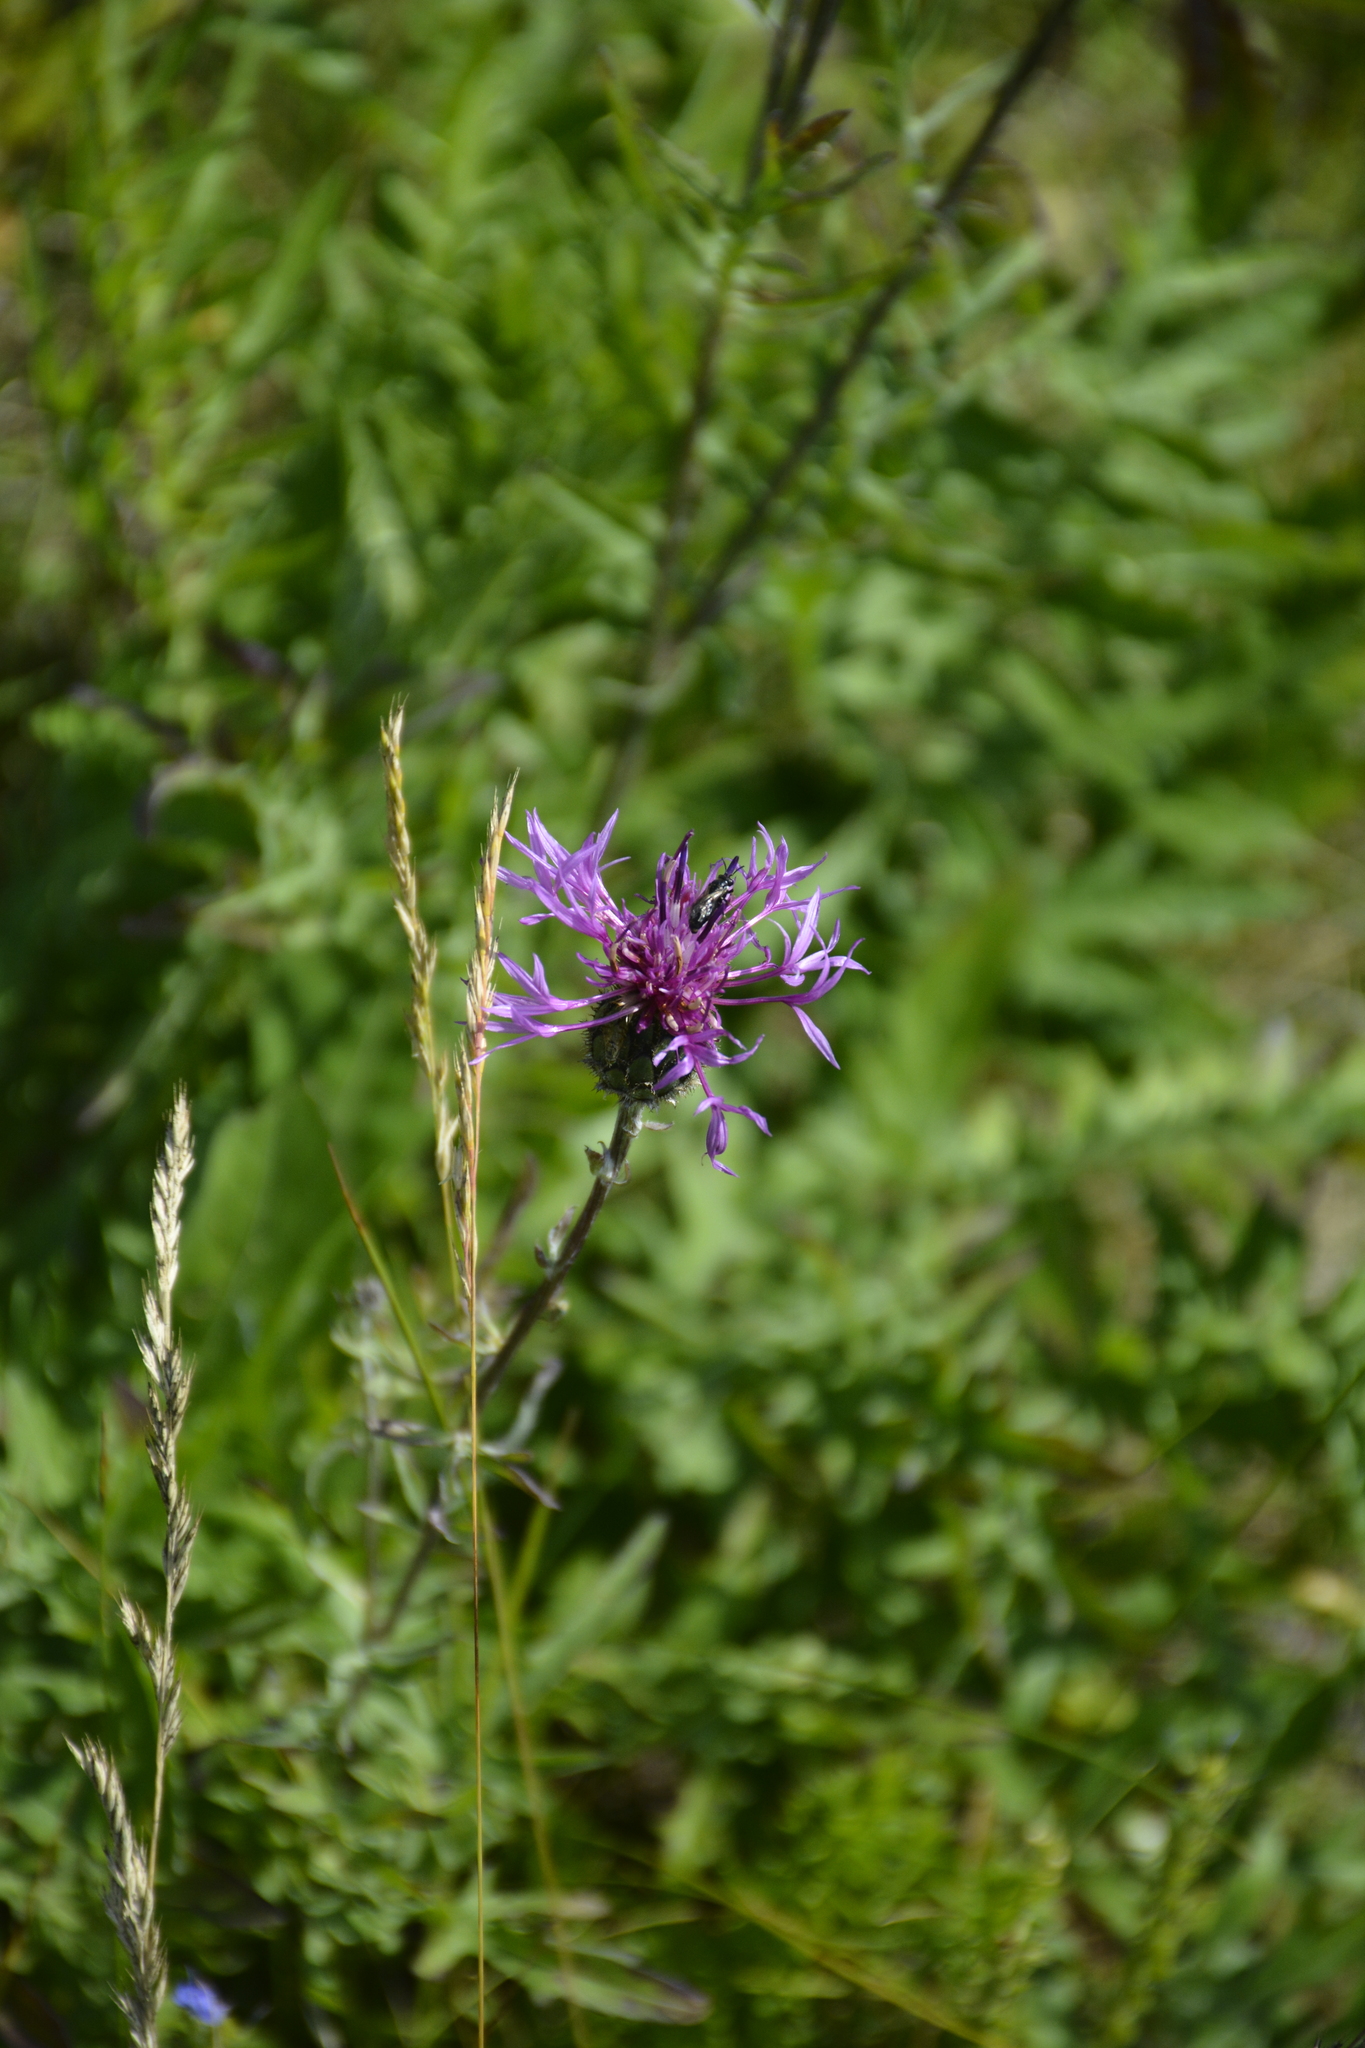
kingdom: Plantae
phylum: Tracheophyta
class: Magnoliopsida
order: Asterales
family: Asteraceae
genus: Centaurea
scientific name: Centaurea scabiosa
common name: Greater knapweed
